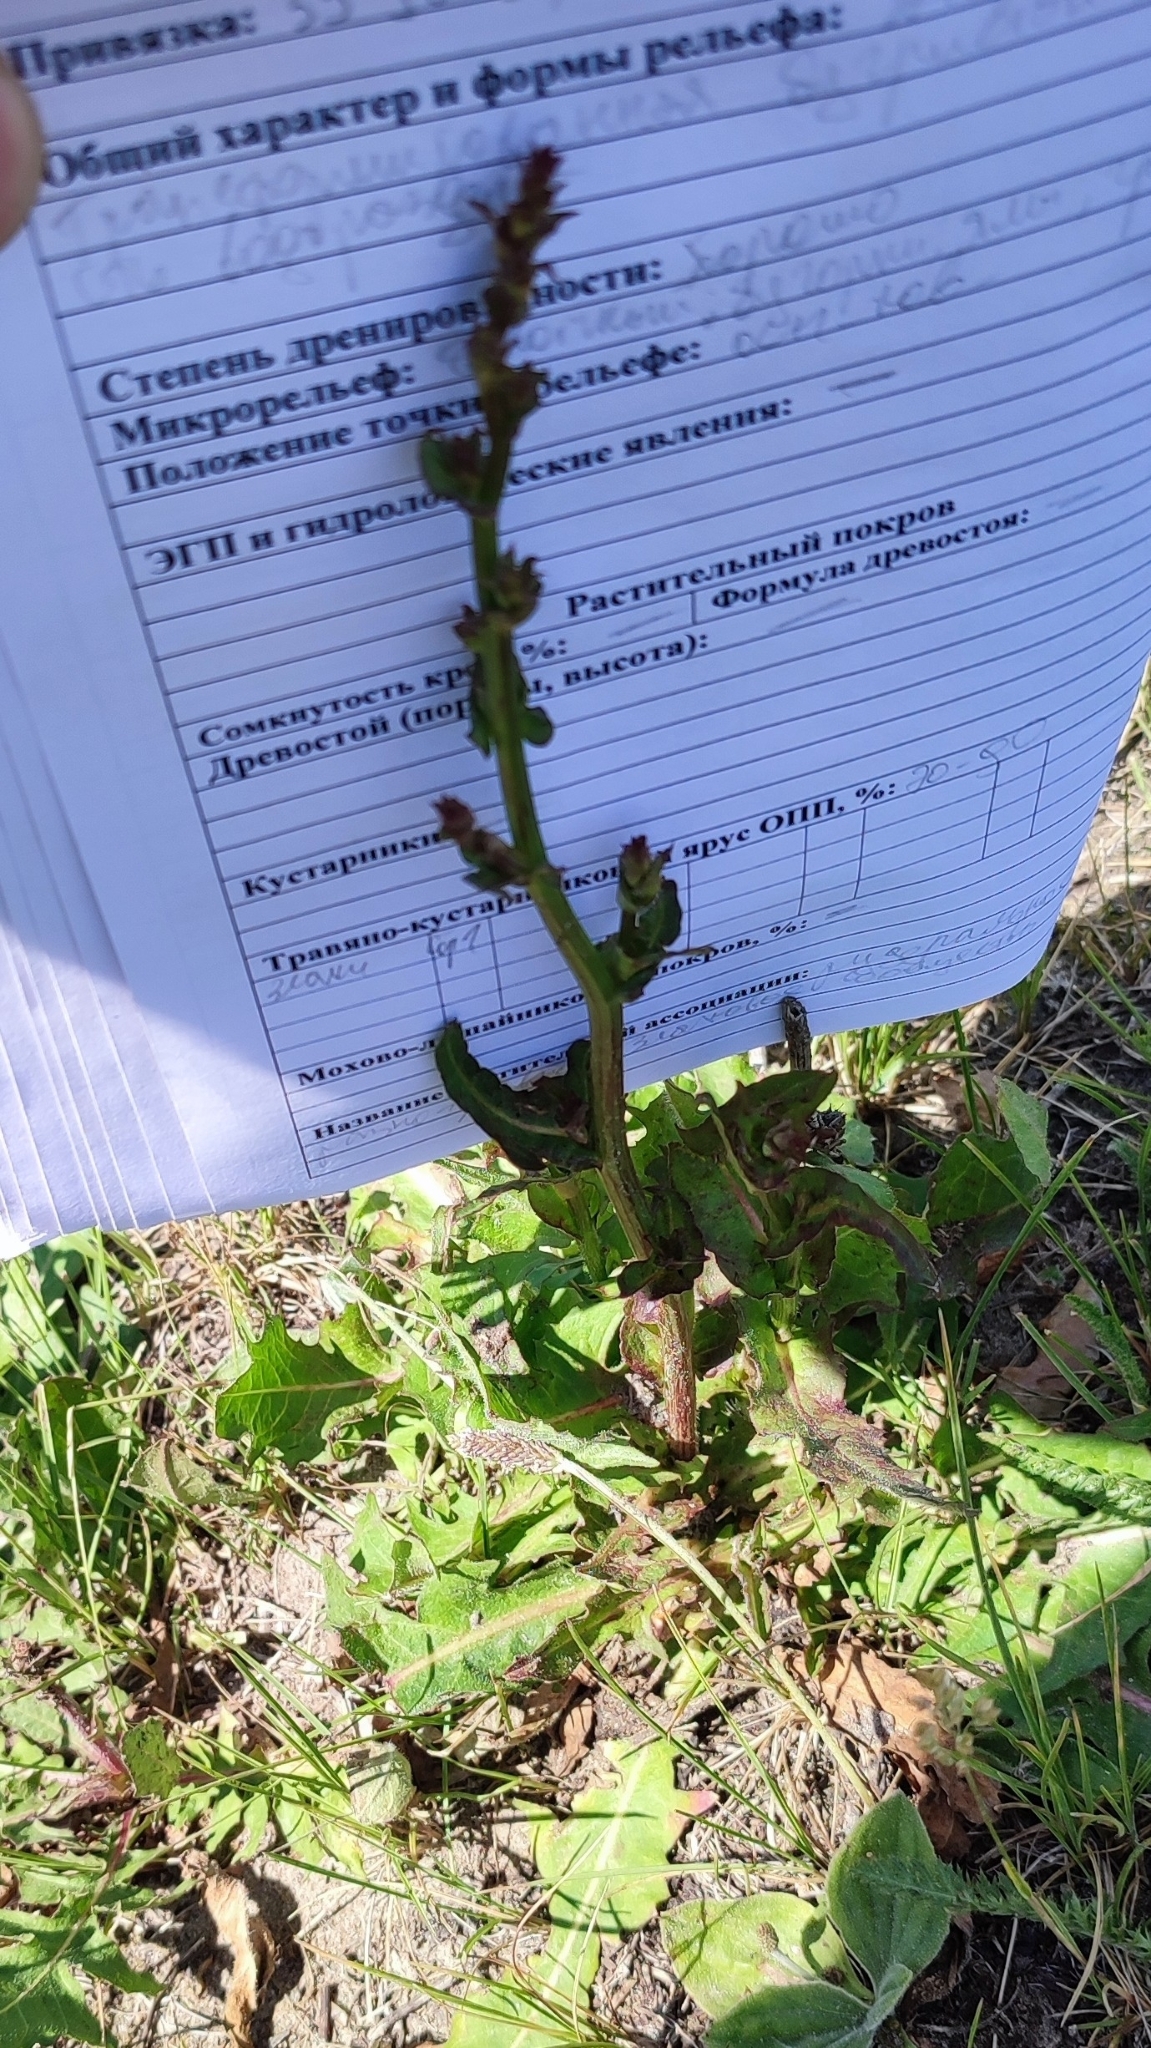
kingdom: Plantae
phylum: Tracheophyta
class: Magnoliopsida
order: Asterales
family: Asteraceae
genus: Cichorium
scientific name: Cichorium intybus
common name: Chicory
